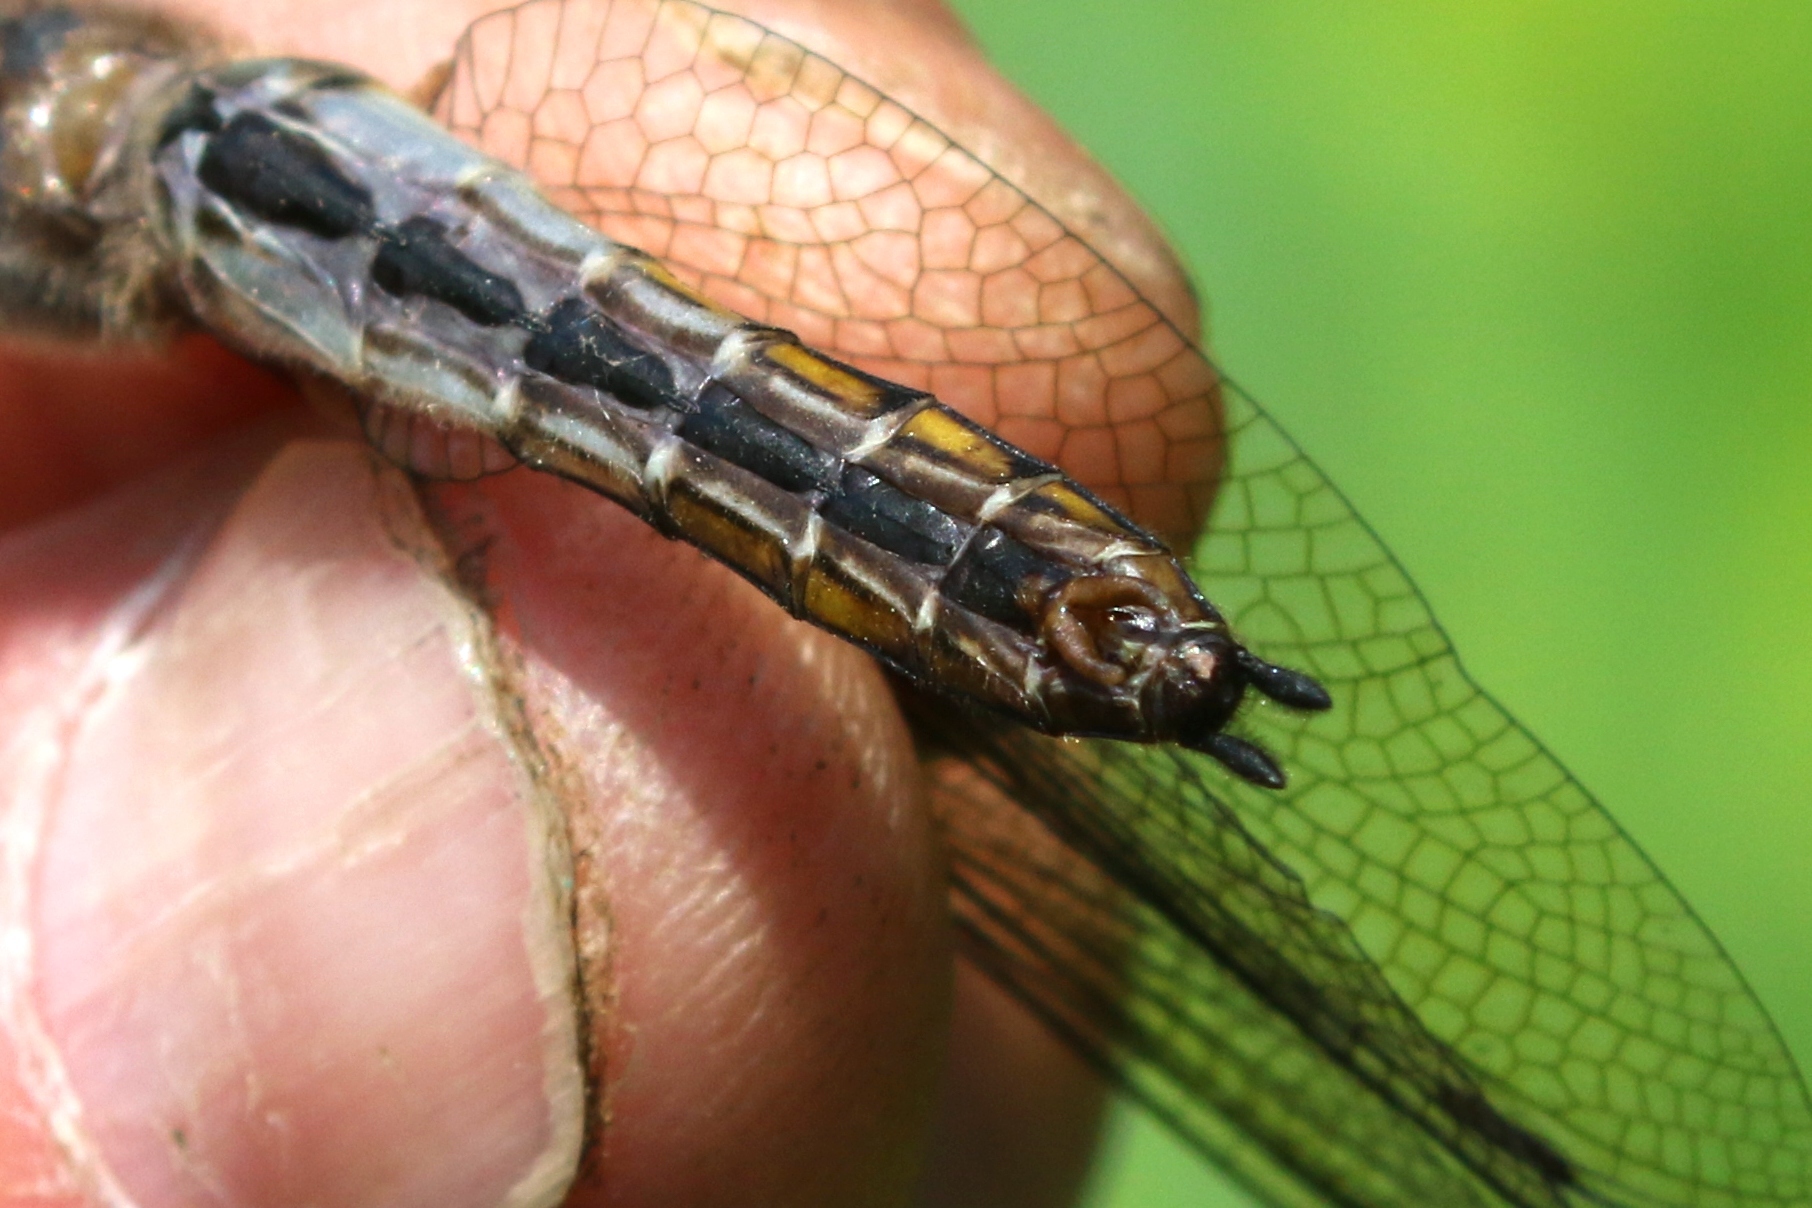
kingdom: Animalia
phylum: Arthropoda
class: Insecta
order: Odonata
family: Corduliidae
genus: Epitheca
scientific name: Epitheca spinigera
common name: Spiny baskettail
